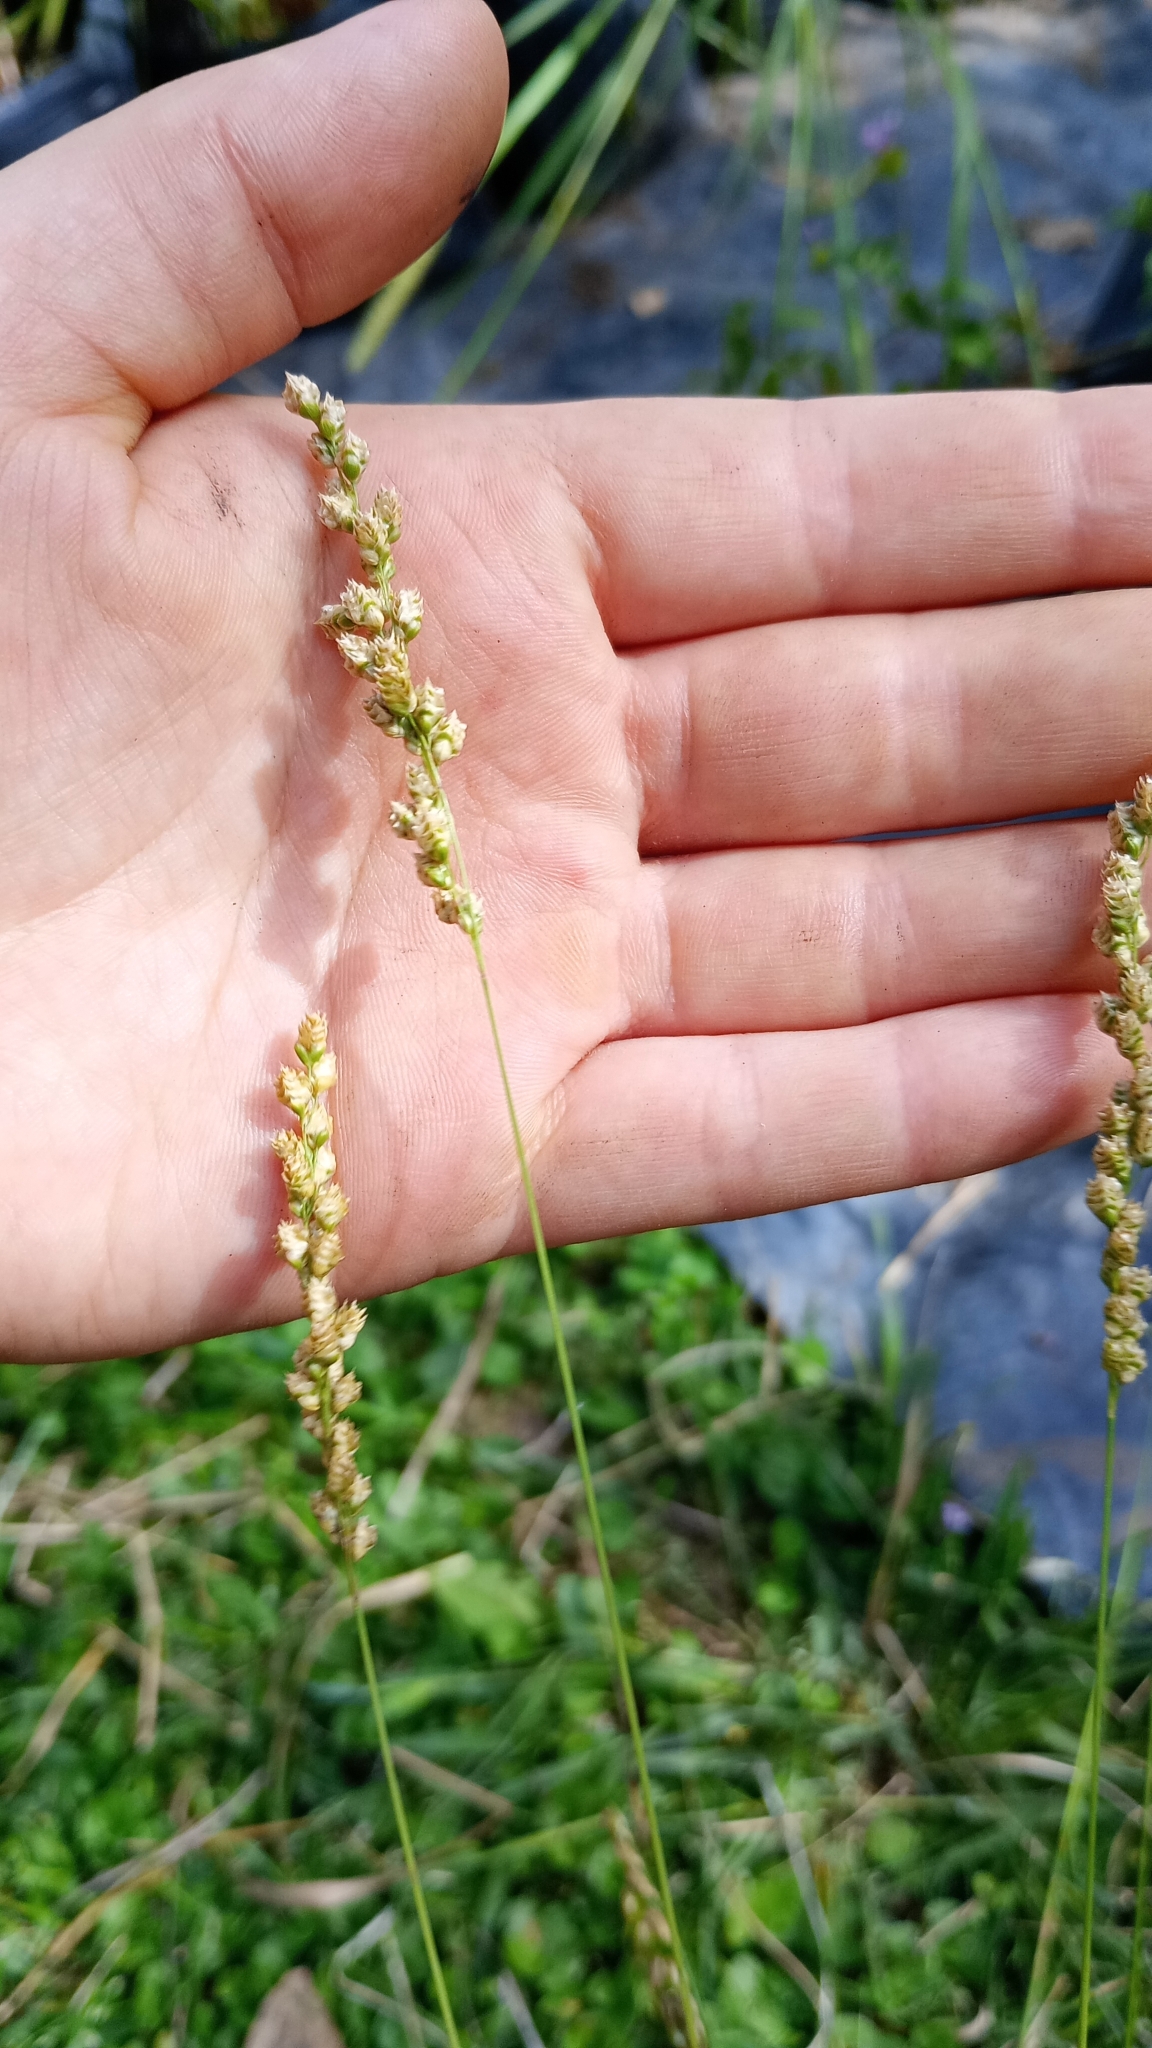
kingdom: Plantae
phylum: Tracheophyta
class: Liliopsida
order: Poales
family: Poaceae
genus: Chascolytrum
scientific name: Chascolytrum subaristatum
